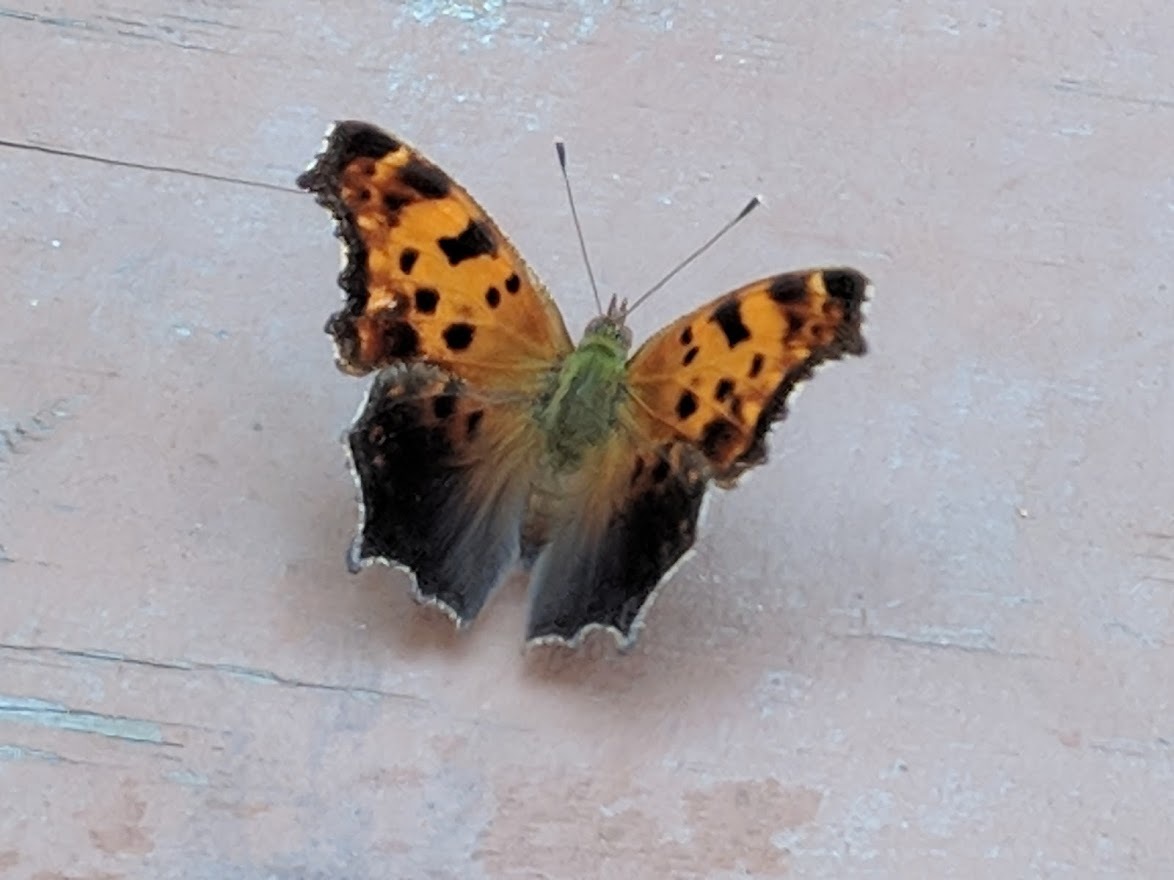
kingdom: Animalia
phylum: Arthropoda
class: Insecta
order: Lepidoptera
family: Nymphalidae
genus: Polygonia
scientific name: Polygonia comma
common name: Eastern comma
